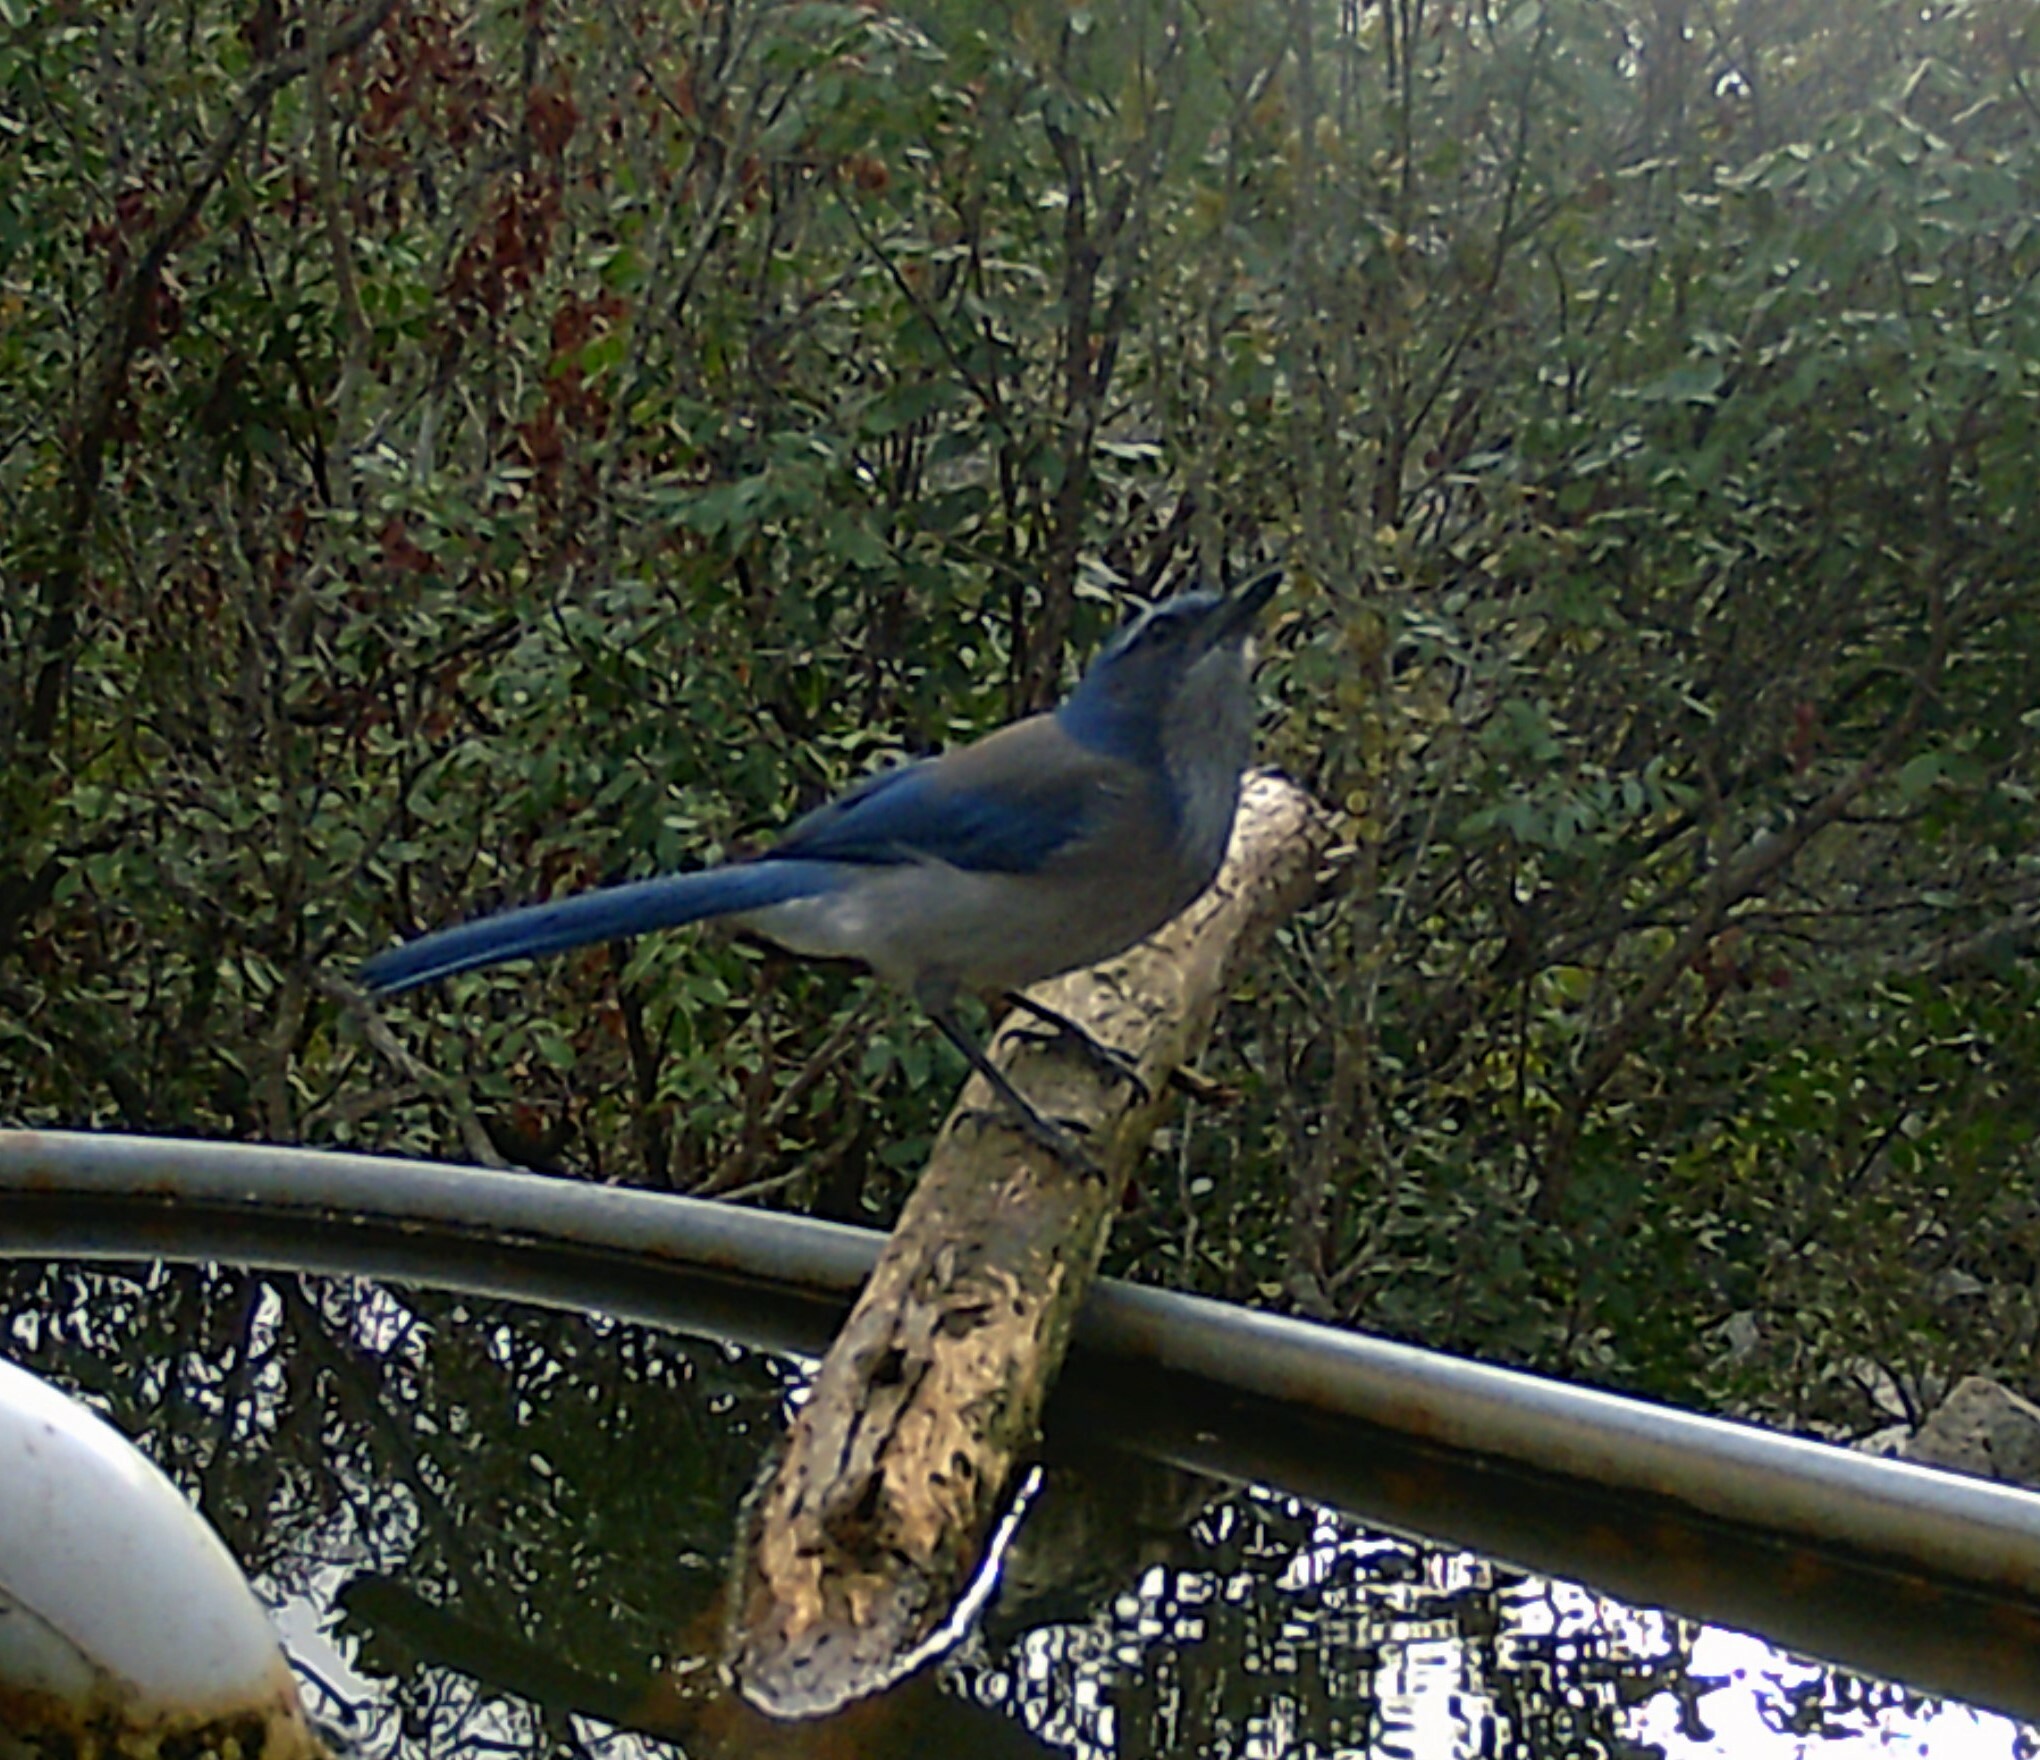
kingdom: Animalia
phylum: Chordata
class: Aves
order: Passeriformes
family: Corvidae
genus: Aphelocoma
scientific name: Aphelocoma woodhouseii
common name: Woodhouse's scrub-jay
